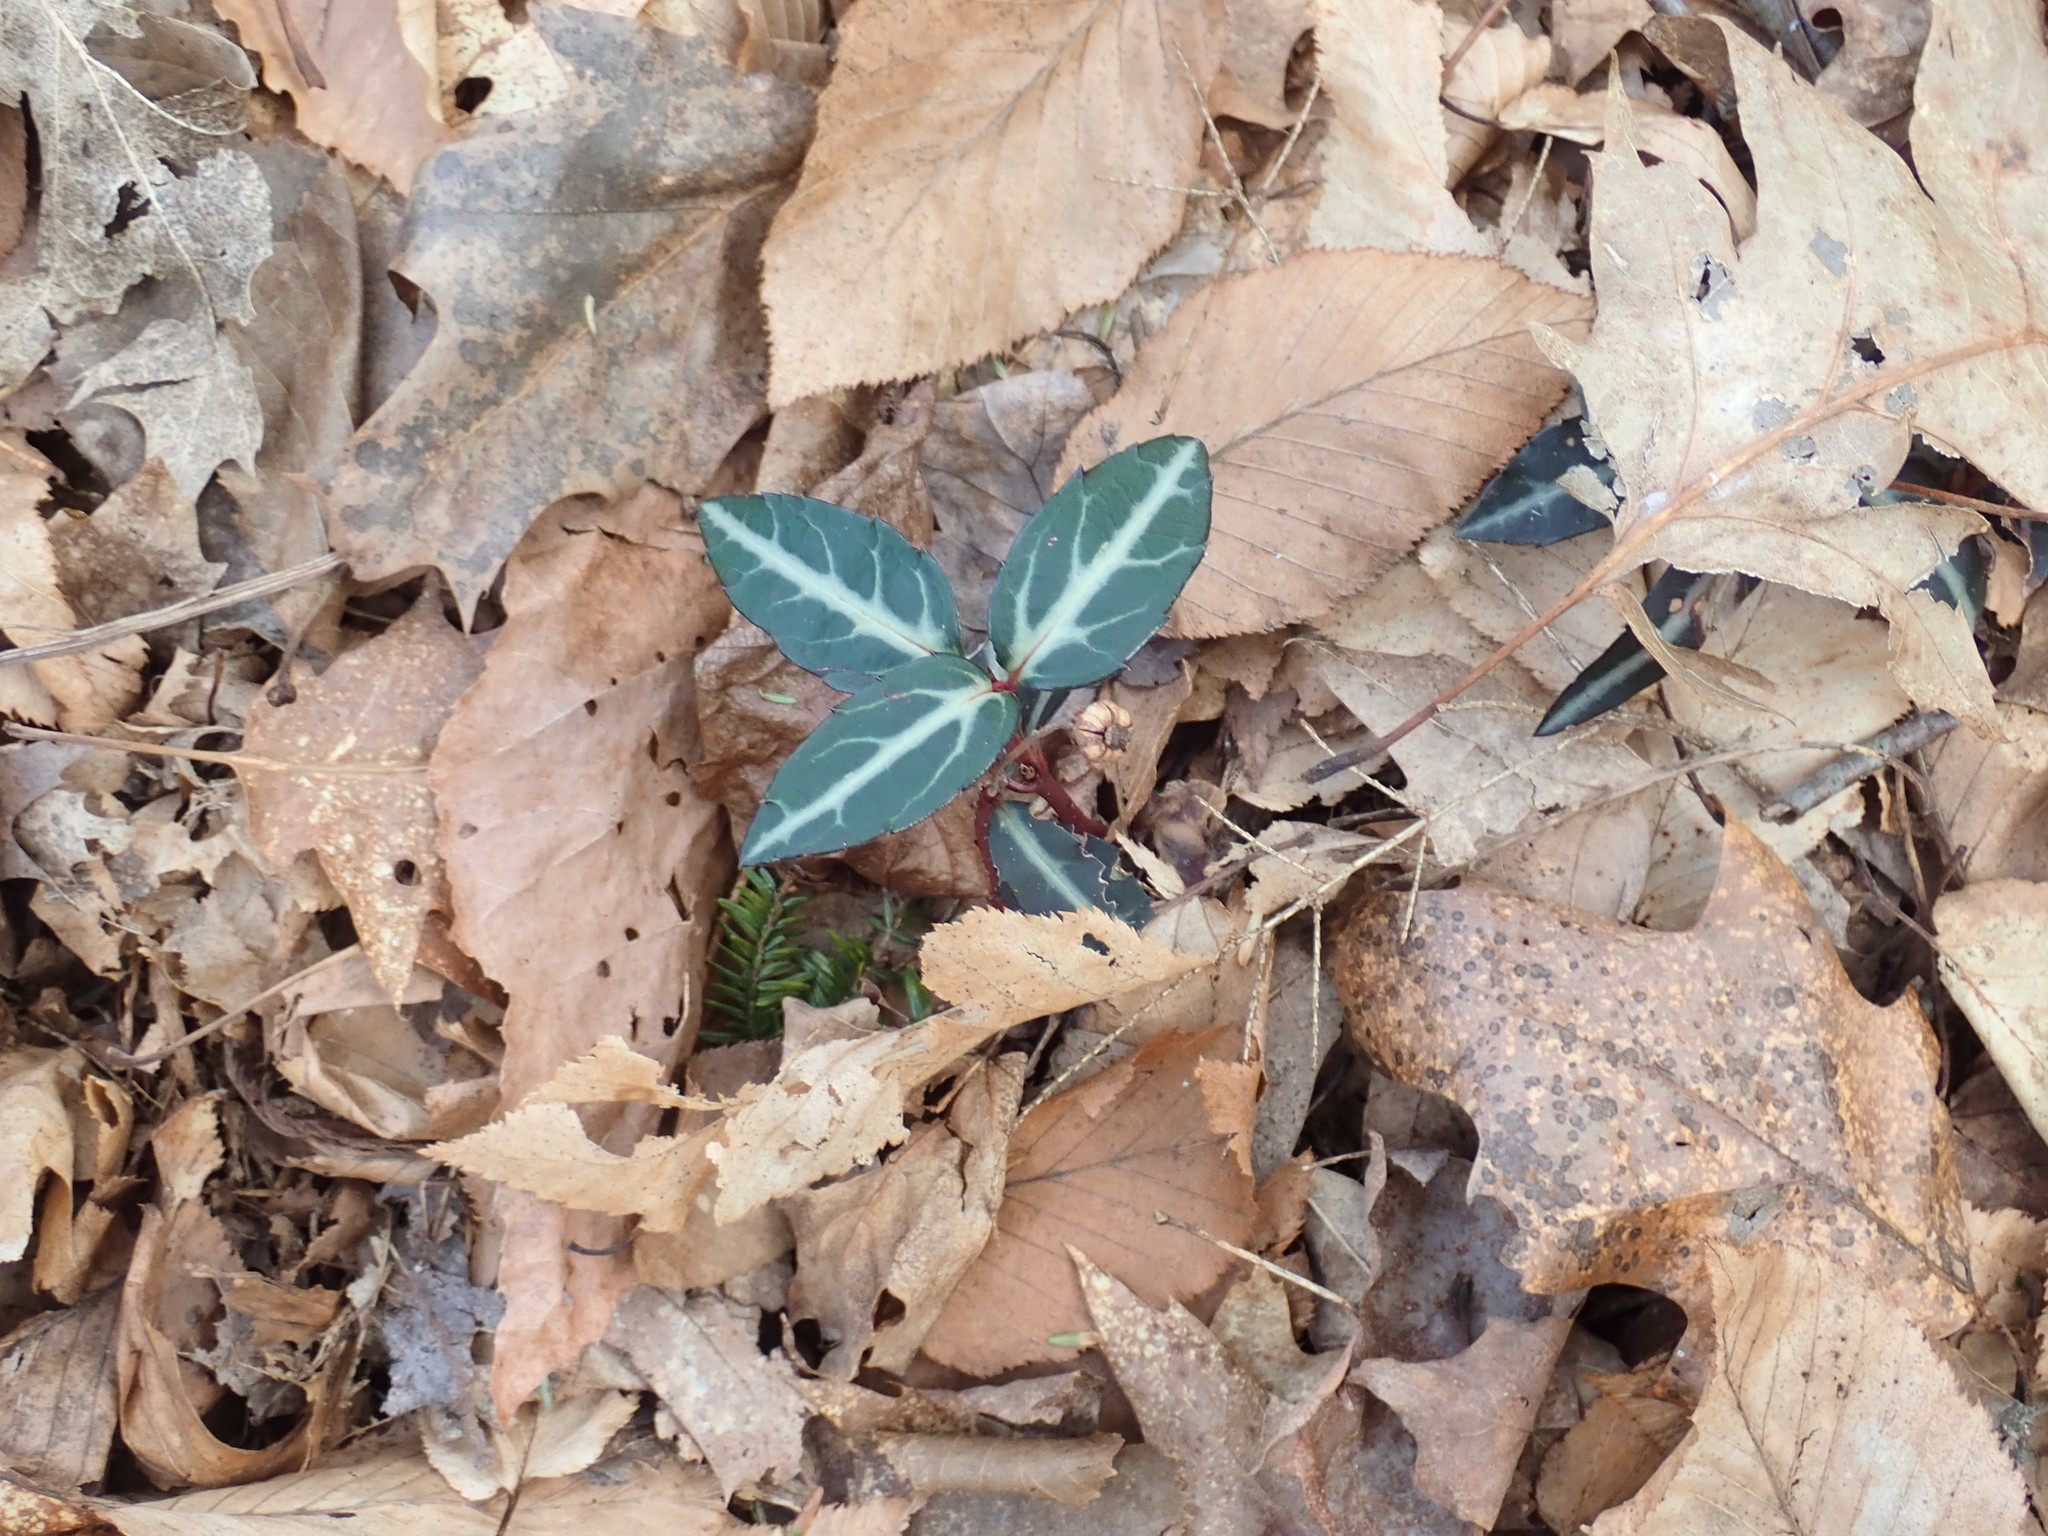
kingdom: Plantae
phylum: Tracheophyta
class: Magnoliopsida
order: Ericales
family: Ericaceae
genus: Chimaphila
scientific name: Chimaphila maculata
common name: Spotted pipsissewa
